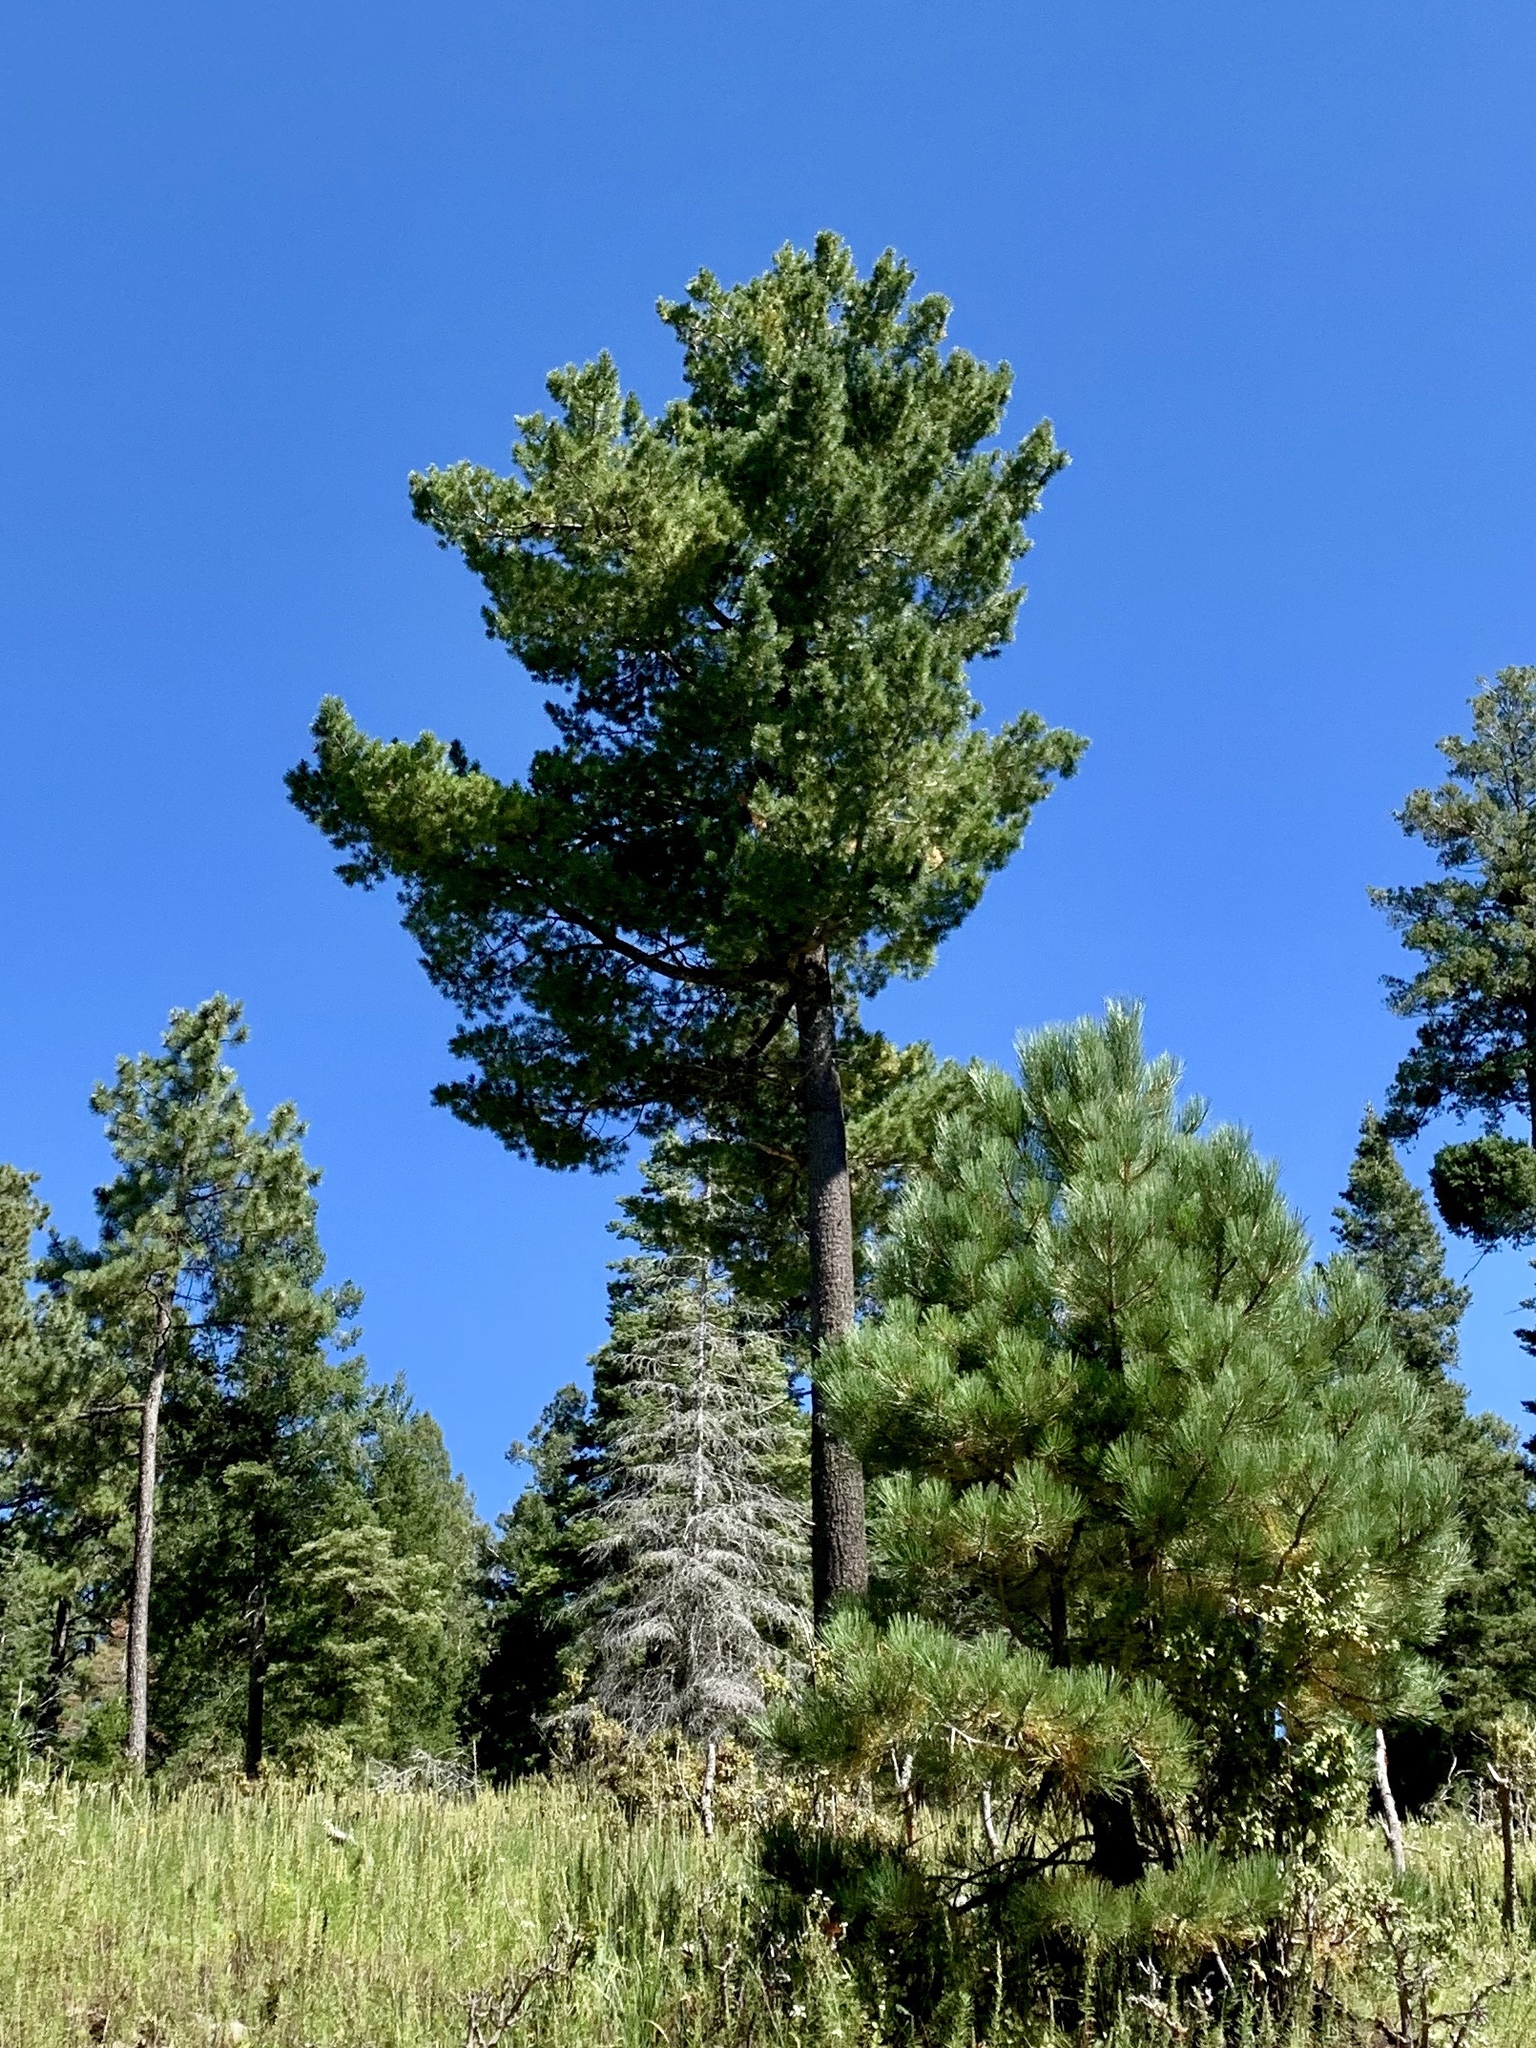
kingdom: Plantae
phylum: Tracheophyta
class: Pinopsida
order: Pinales
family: Pinaceae
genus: Pinus
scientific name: Pinus ponderosa
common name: Western yellow-pine
